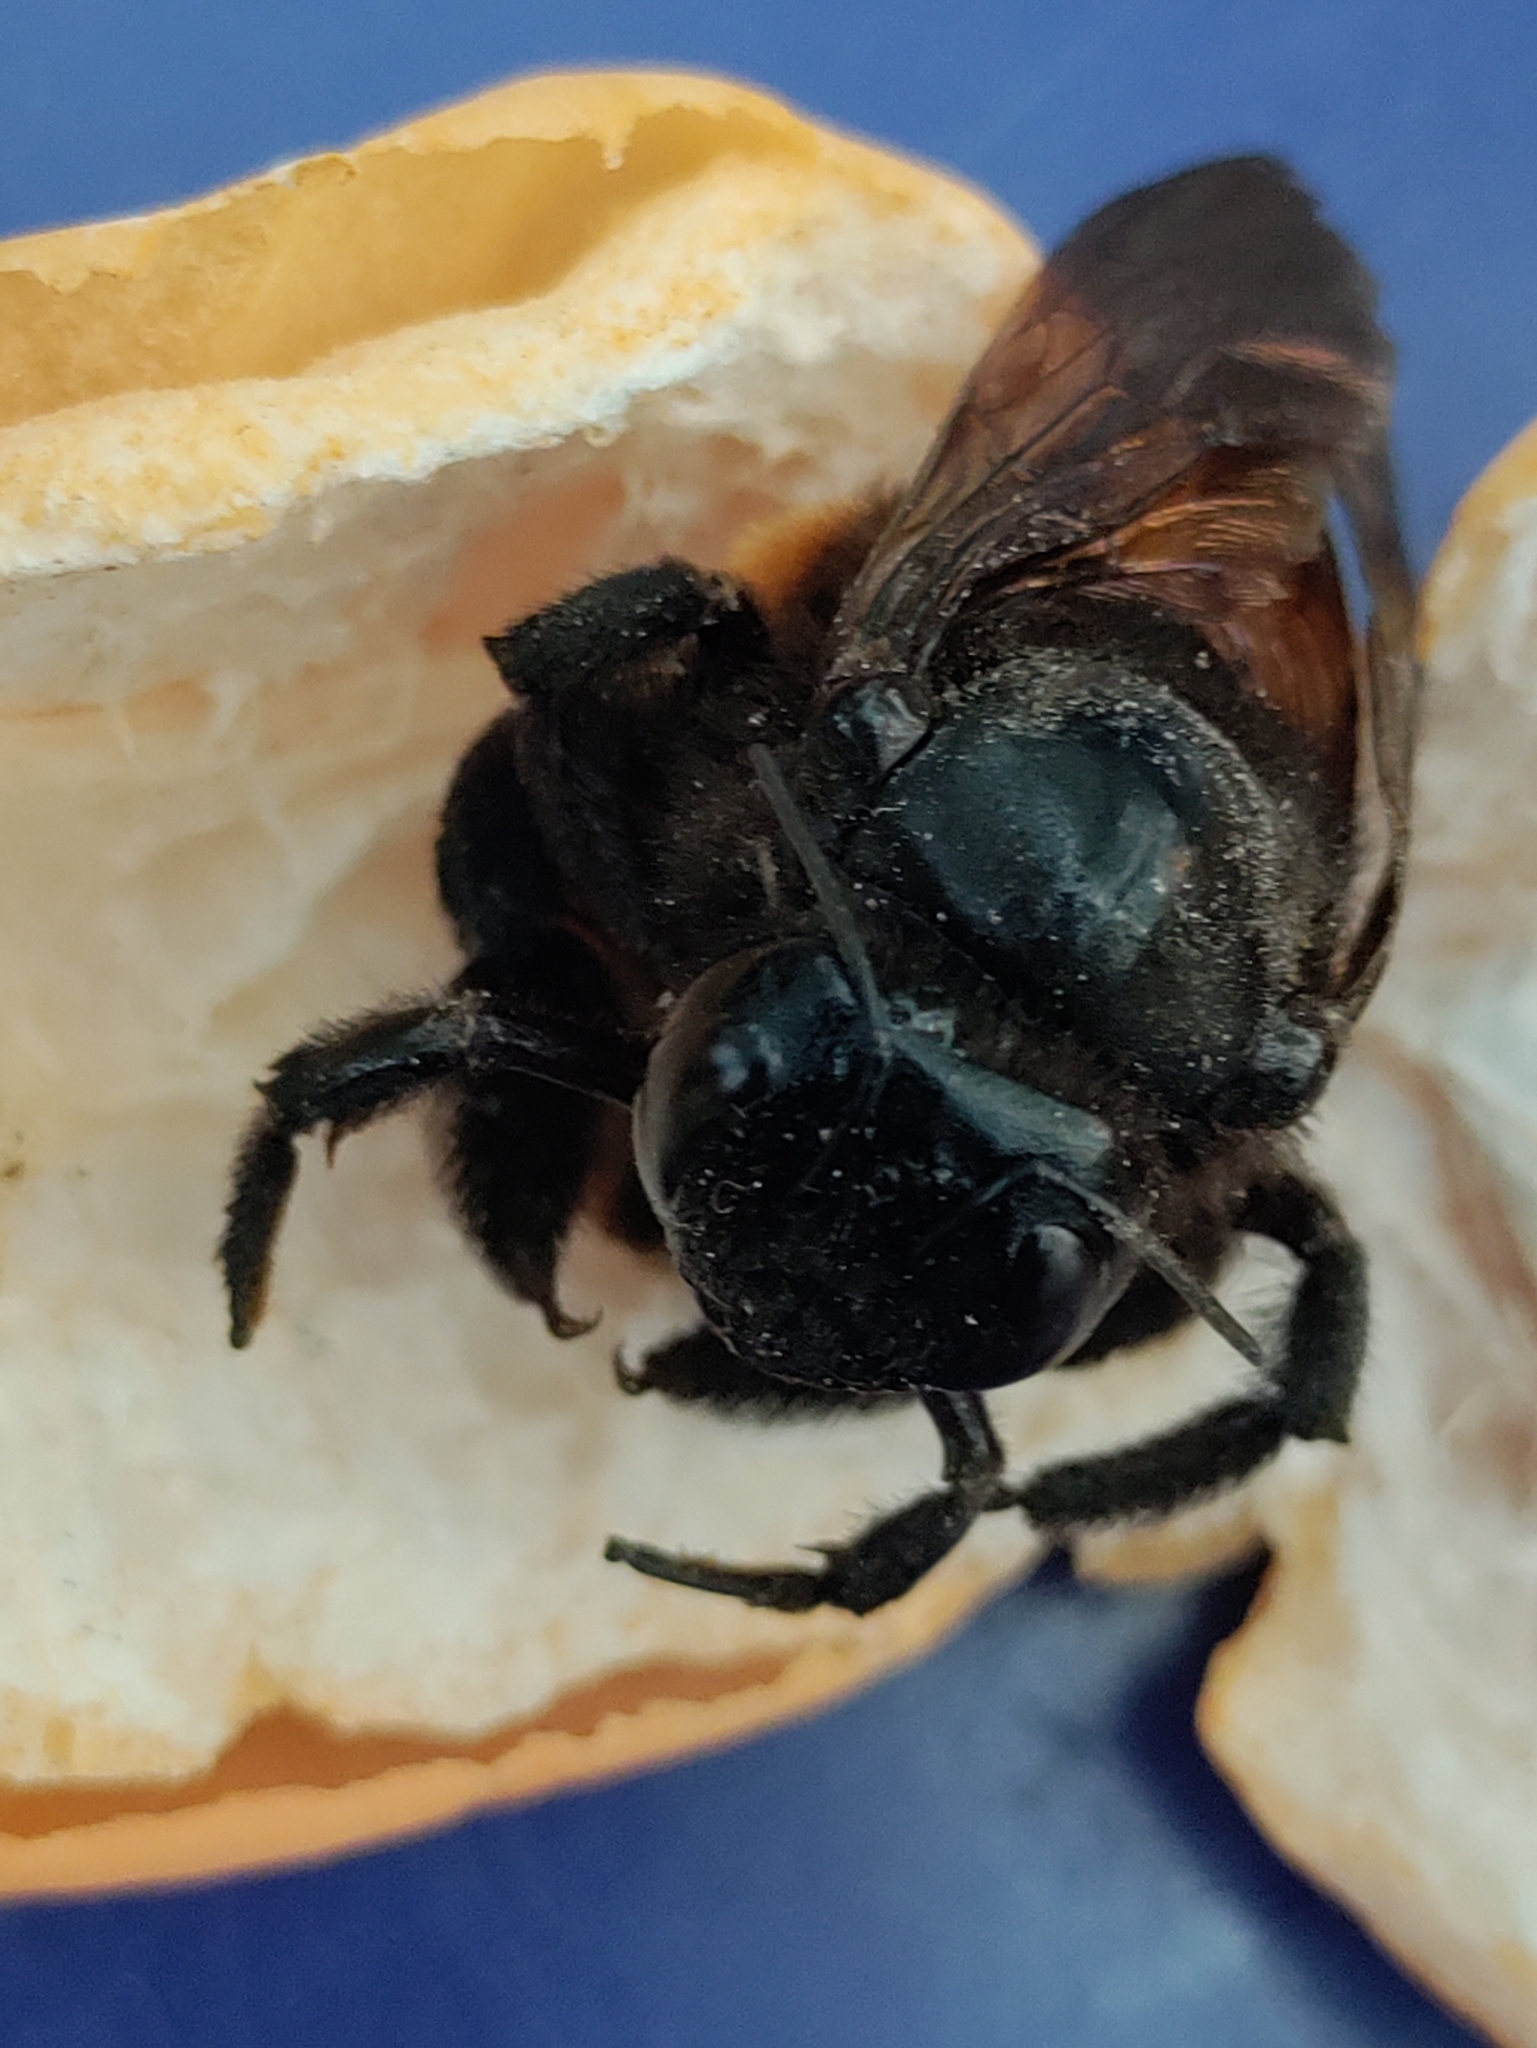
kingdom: Animalia
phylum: Arthropoda
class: Insecta
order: Hymenoptera
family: Apidae
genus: Xylocopa
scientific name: Xylocopa augusti
